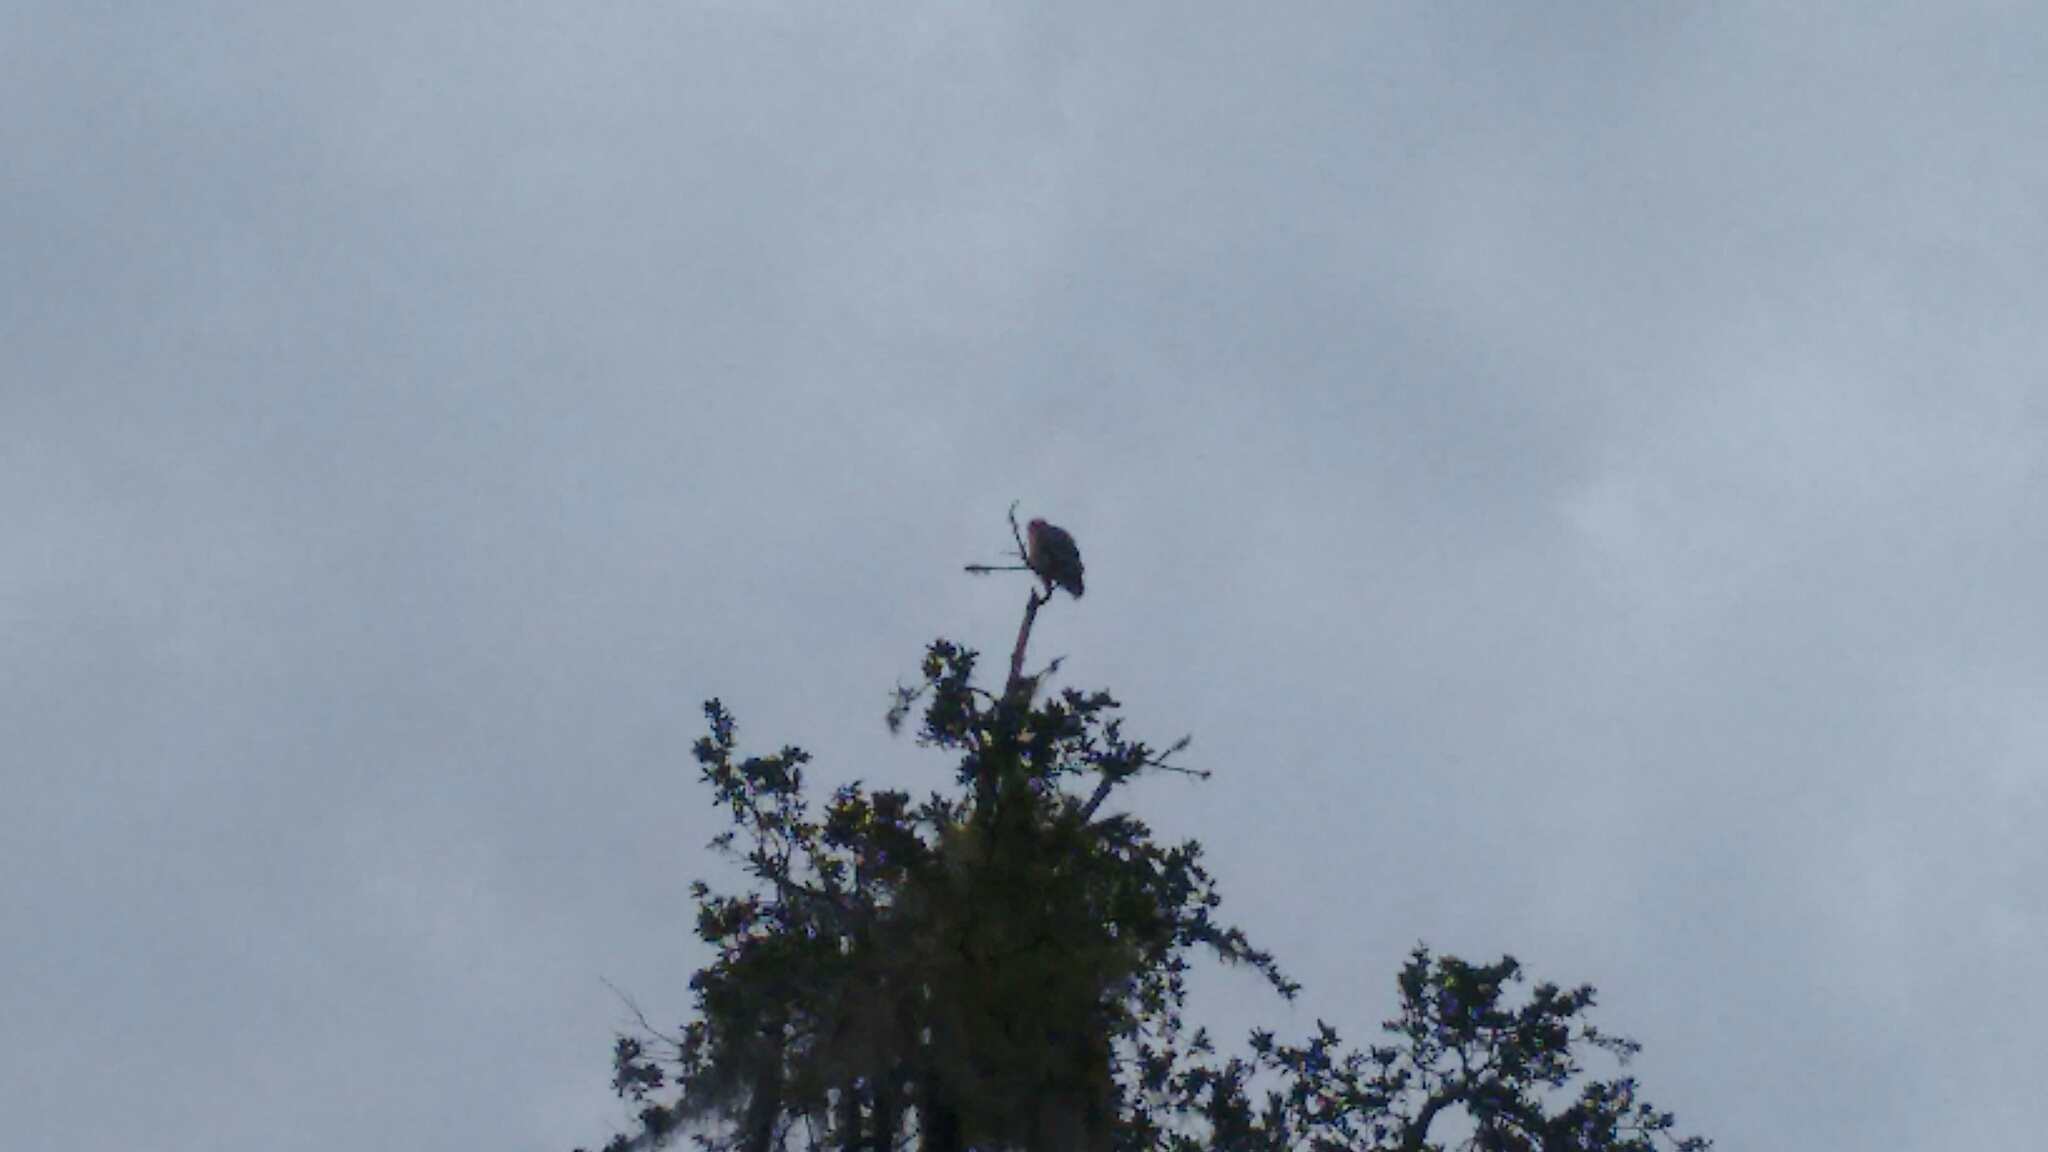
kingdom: Animalia
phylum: Chordata
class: Aves
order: Accipitriformes
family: Accipitridae
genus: Buteo
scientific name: Buteo lineatus
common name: Red-shouldered hawk
